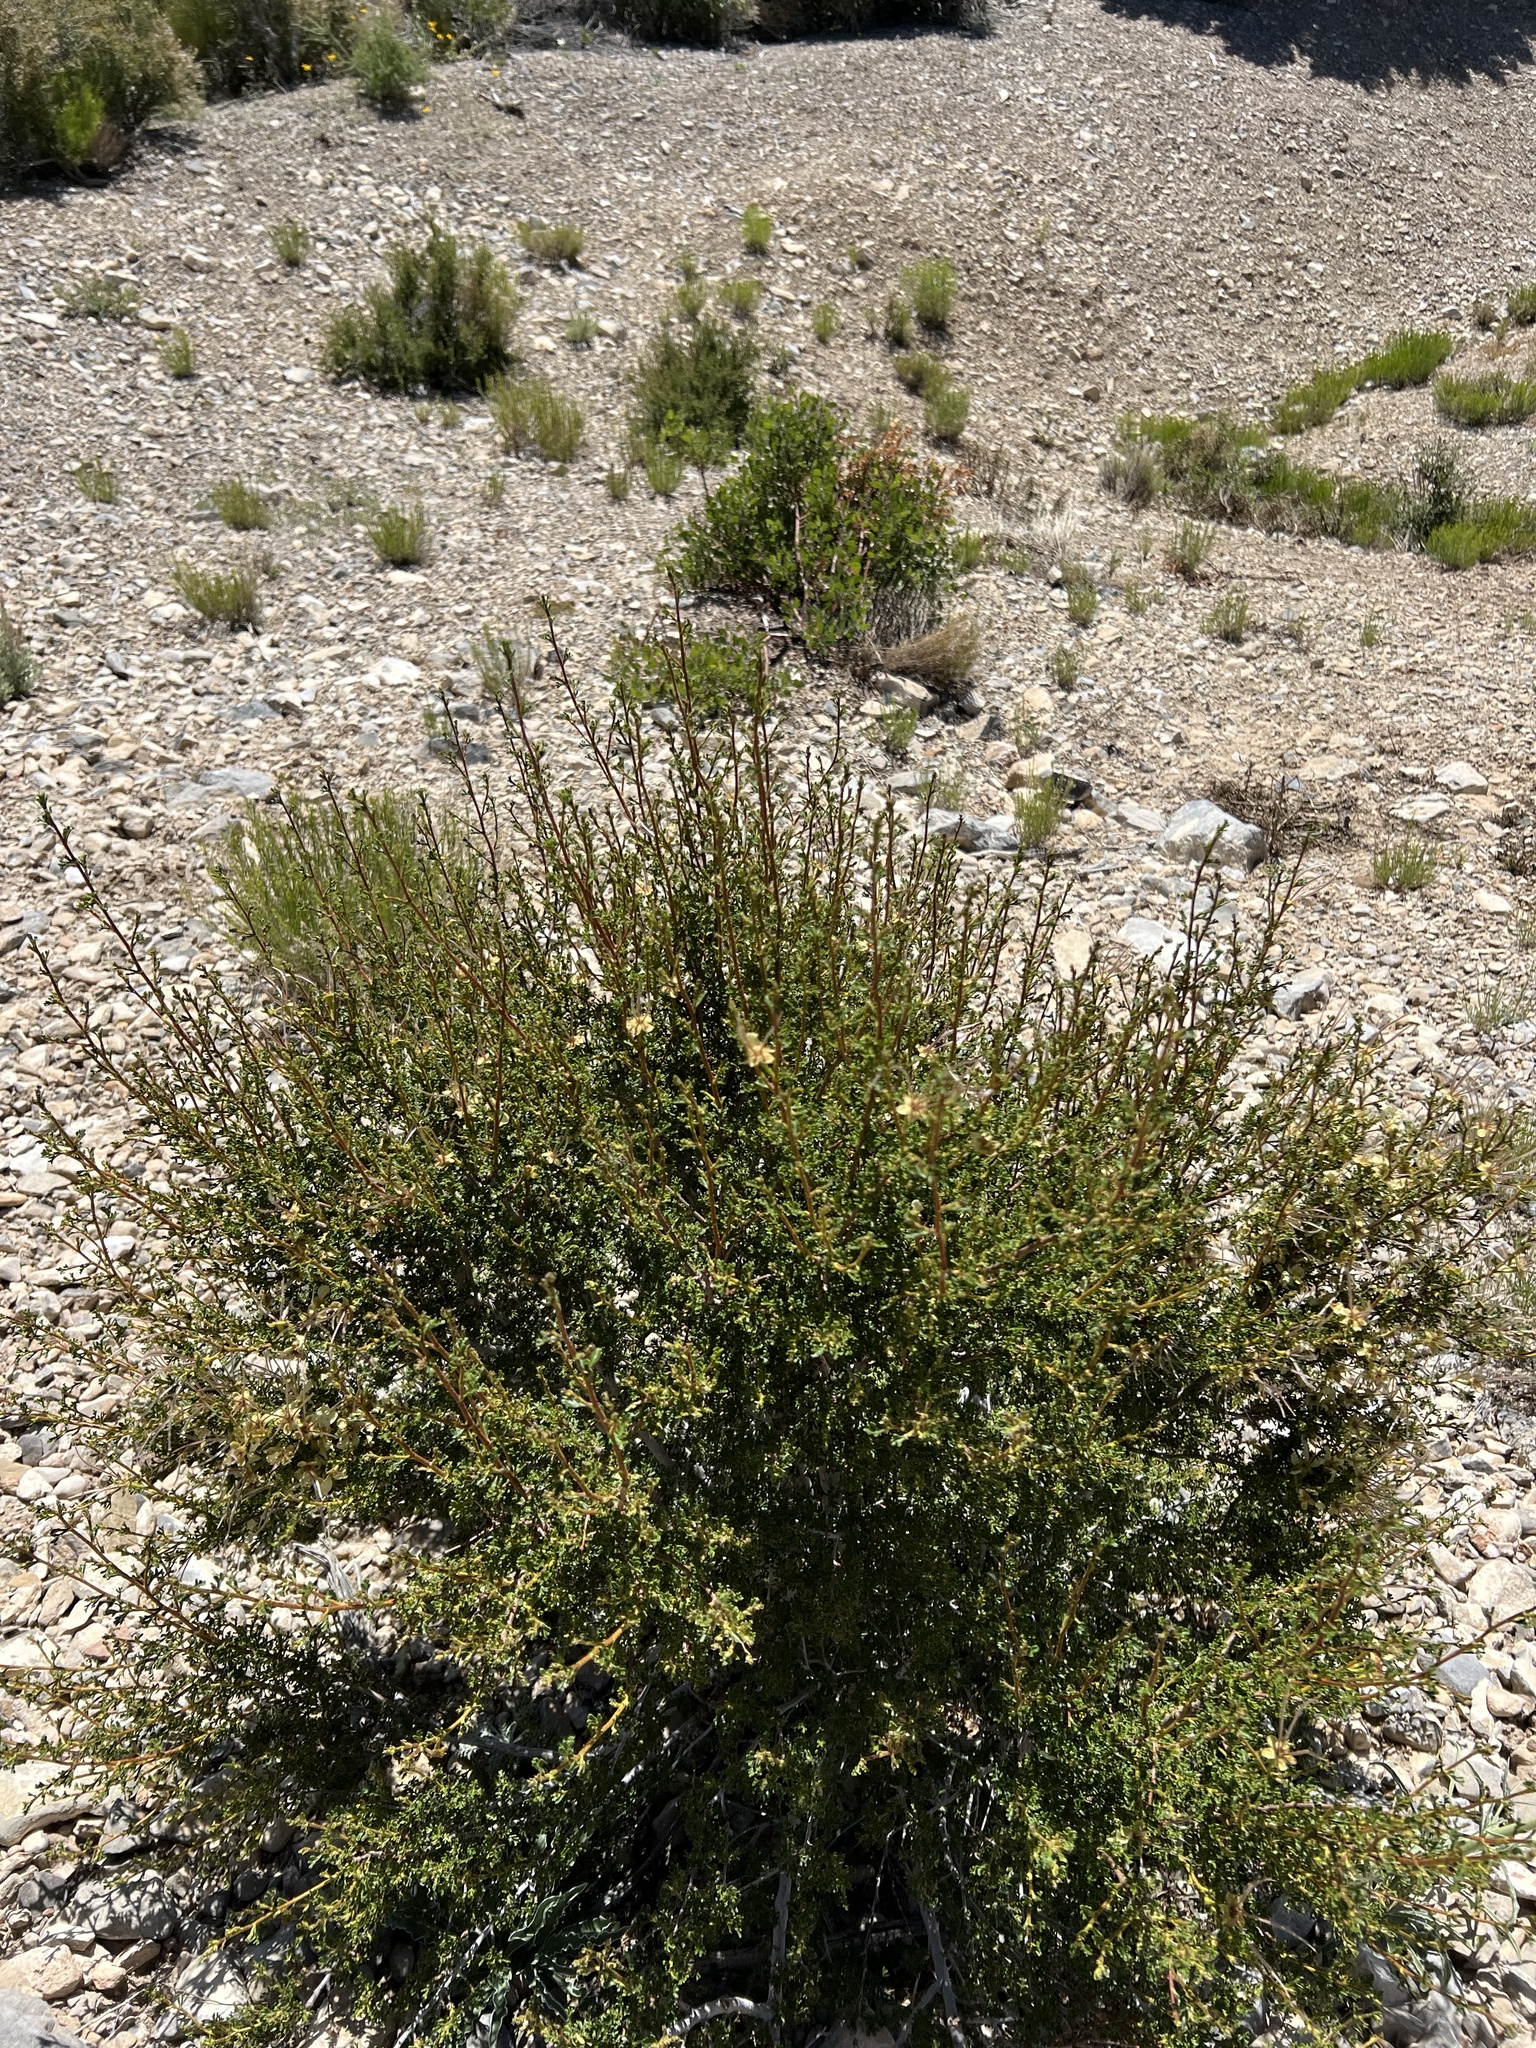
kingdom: Plantae
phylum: Tracheophyta
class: Magnoliopsida
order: Rosales
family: Rosaceae
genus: Purshia
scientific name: Purshia stansburiana
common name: Stansbury's cliffrose
